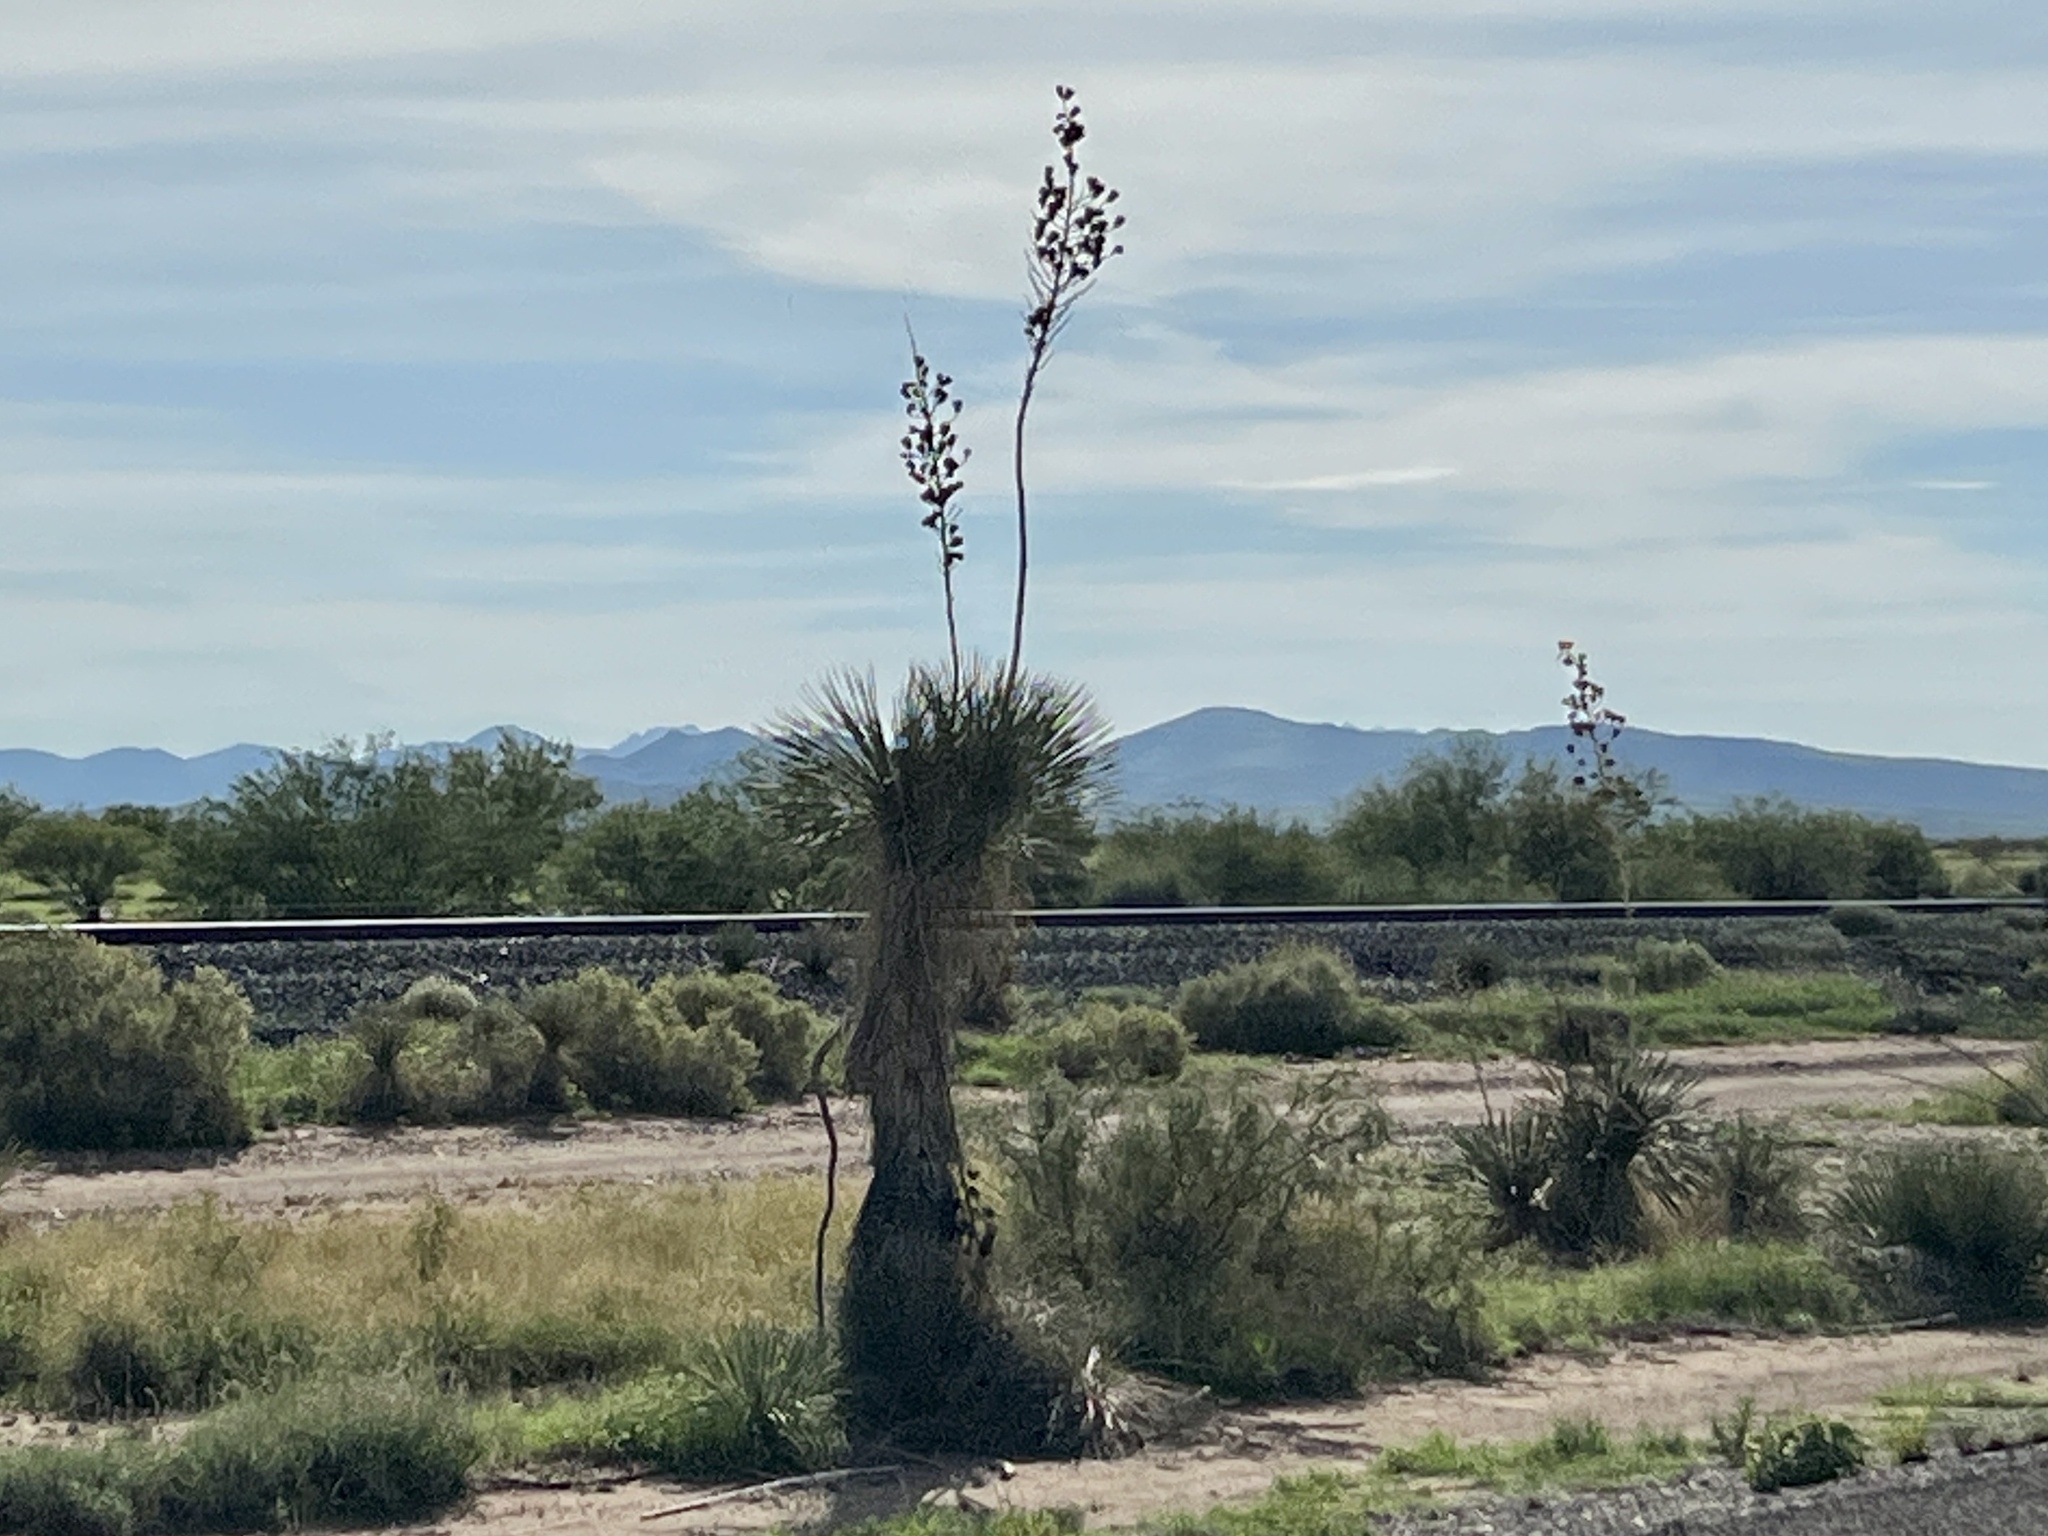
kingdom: Plantae
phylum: Tracheophyta
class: Liliopsida
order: Asparagales
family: Asparagaceae
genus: Yucca
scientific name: Yucca elata
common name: Palmella
